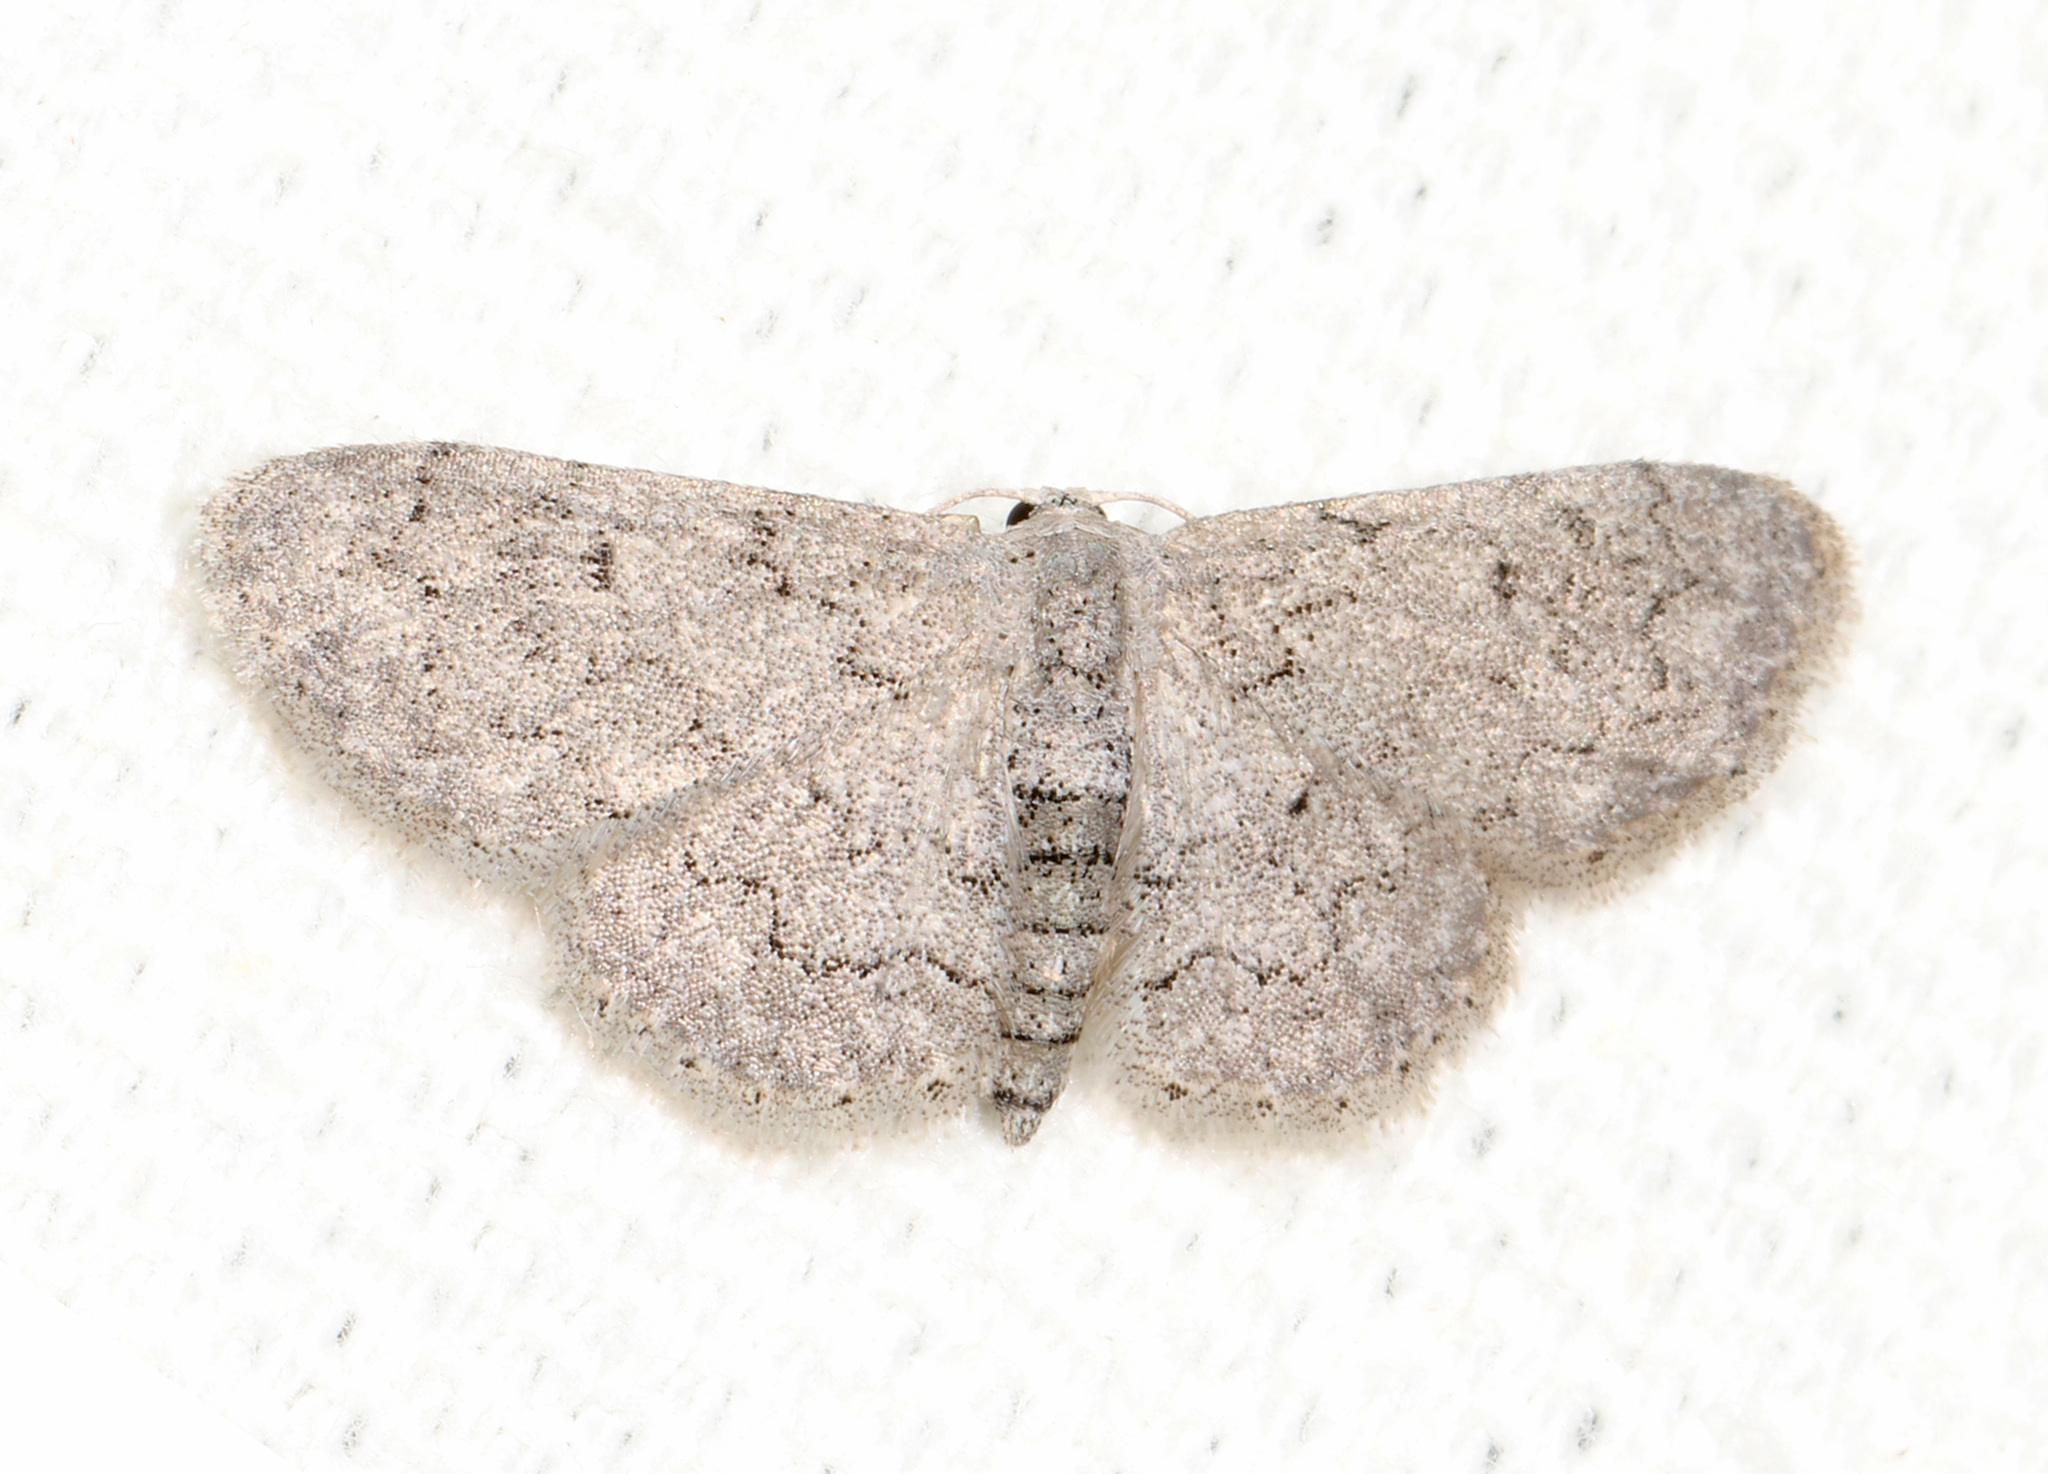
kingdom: Animalia
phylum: Arthropoda
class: Insecta
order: Lepidoptera
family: Geometridae
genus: Idaea
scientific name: Idaea violacearia
